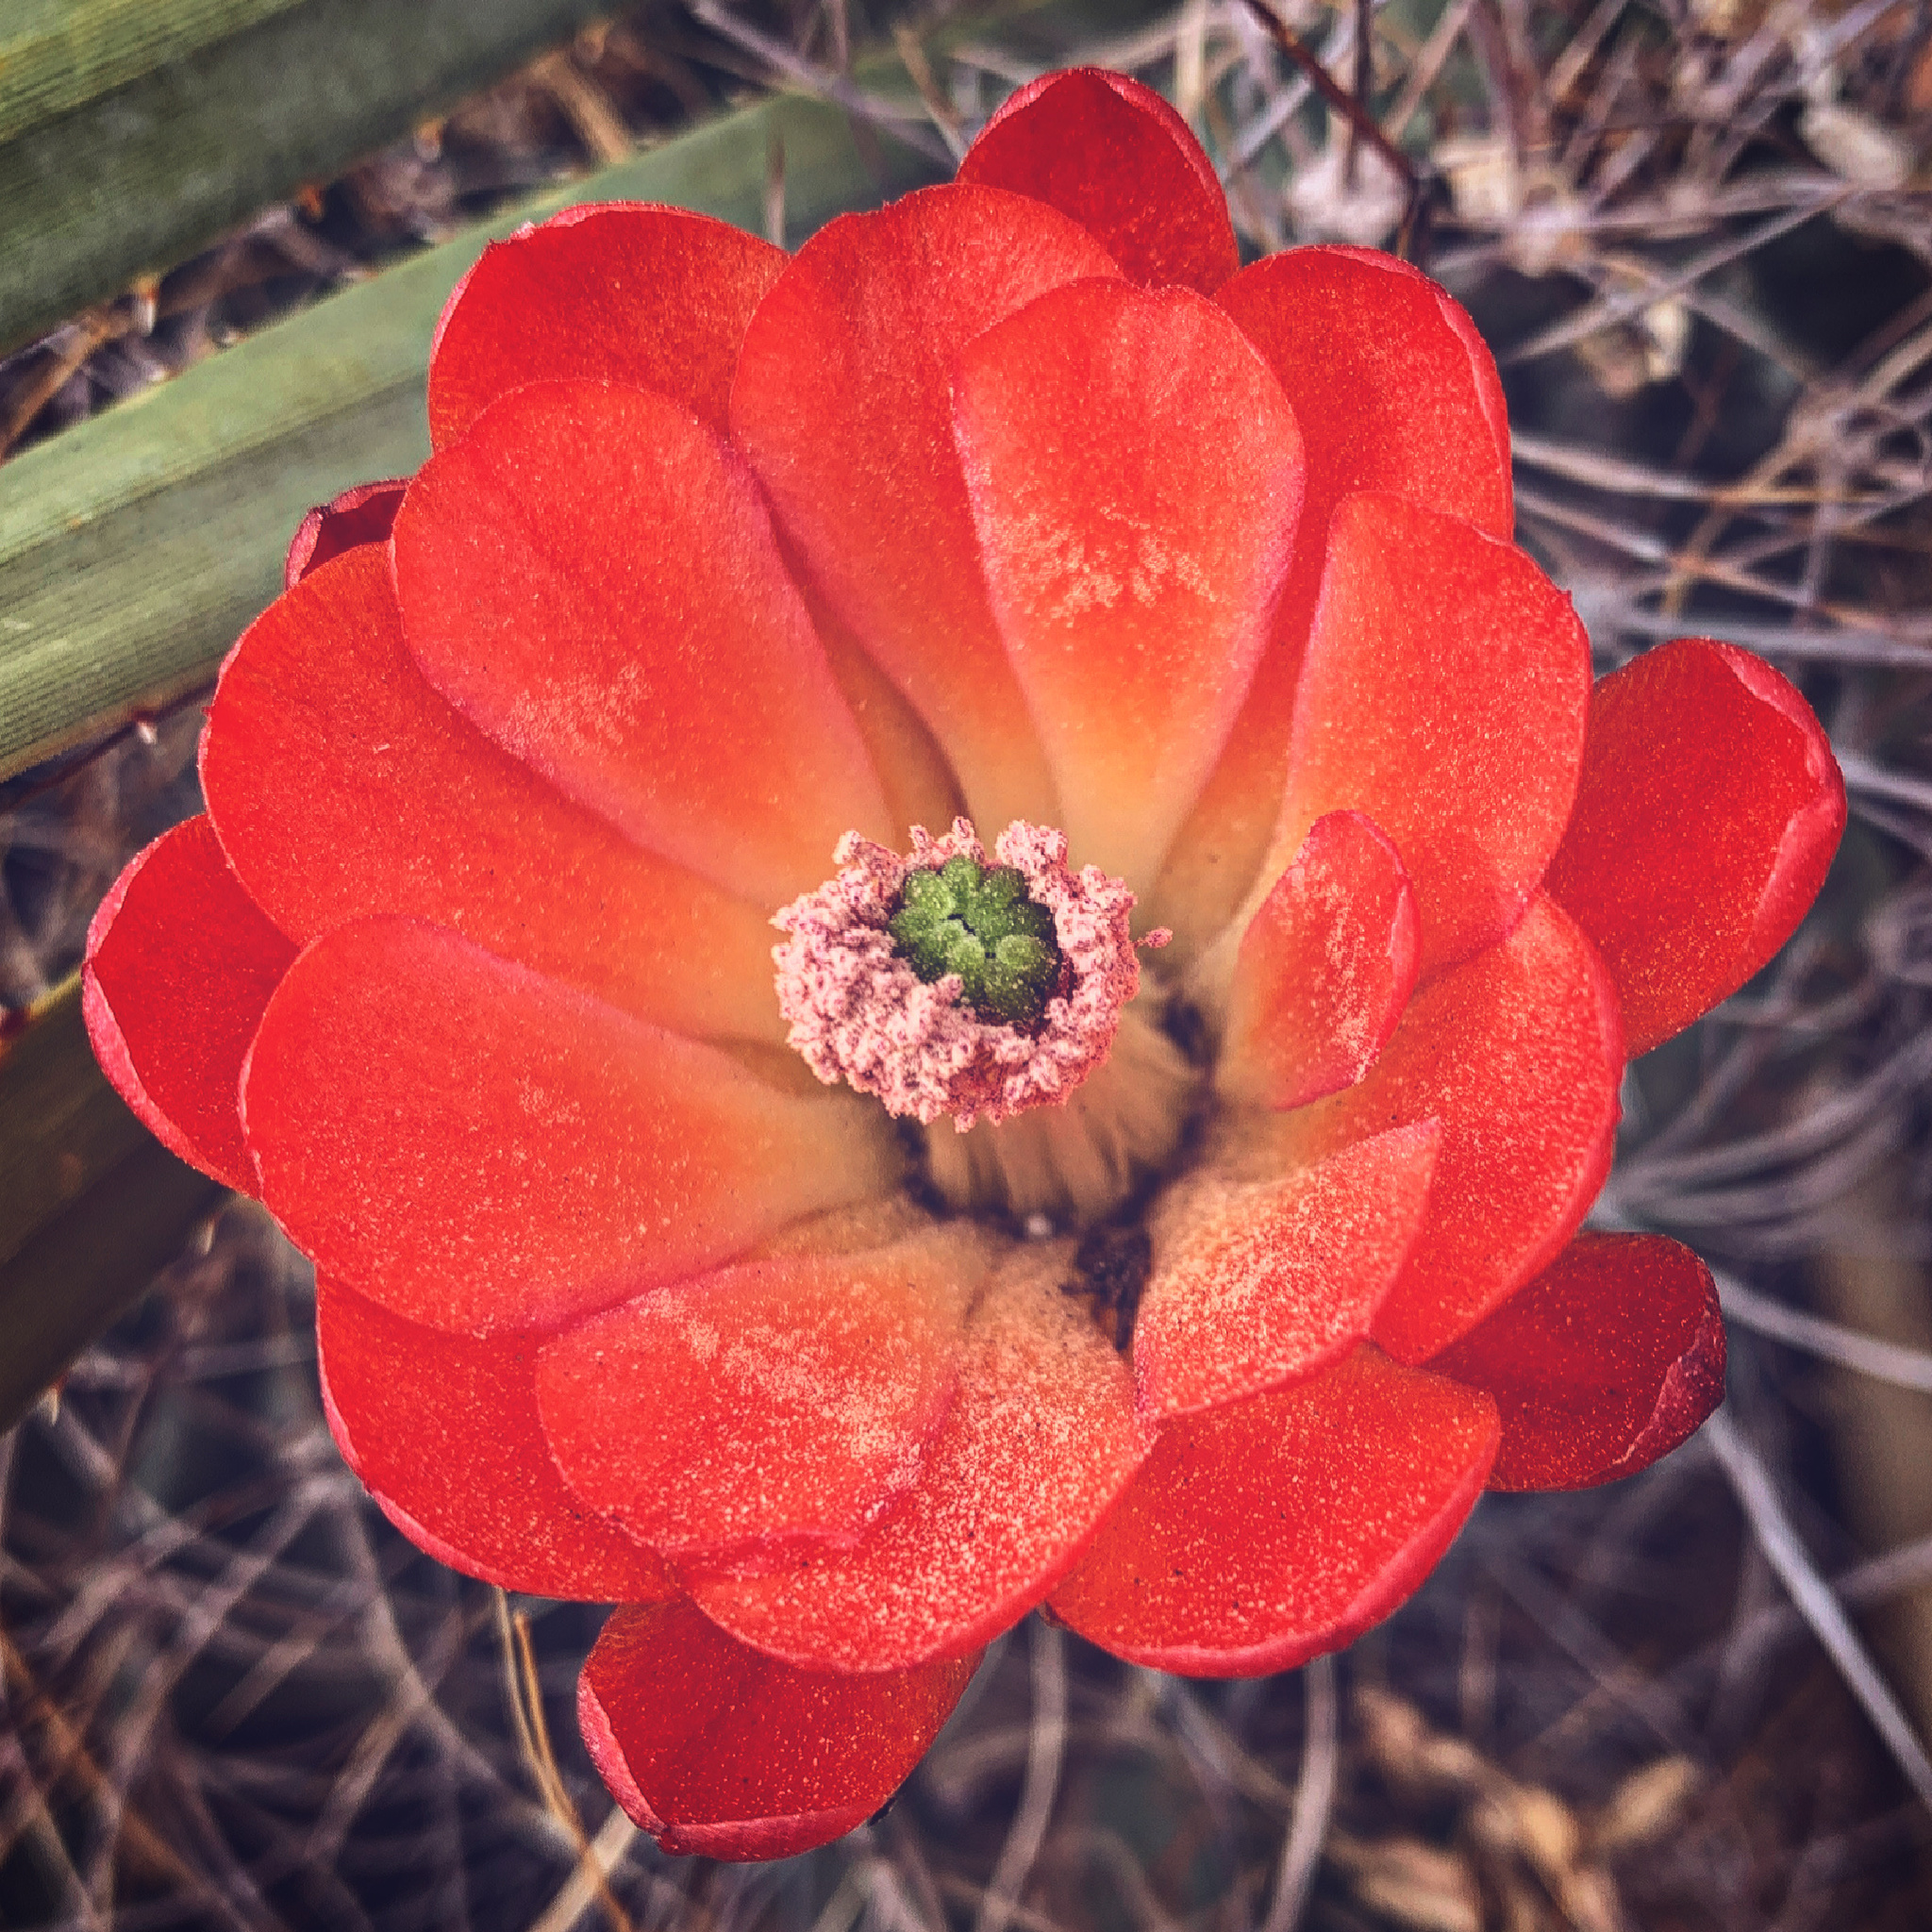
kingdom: Plantae
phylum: Tracheophyta
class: Magnoliopsida
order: Caryophyllales
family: Cactaceae
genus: Echinocereus
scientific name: Echinocereus coccineus
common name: Scarlet hedgehog cactus
